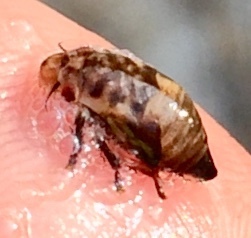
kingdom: Animalia
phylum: Arthropoda
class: Insecta
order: Hemiptera
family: Epipygidae
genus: Epipyga
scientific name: Epipyga cribrata
